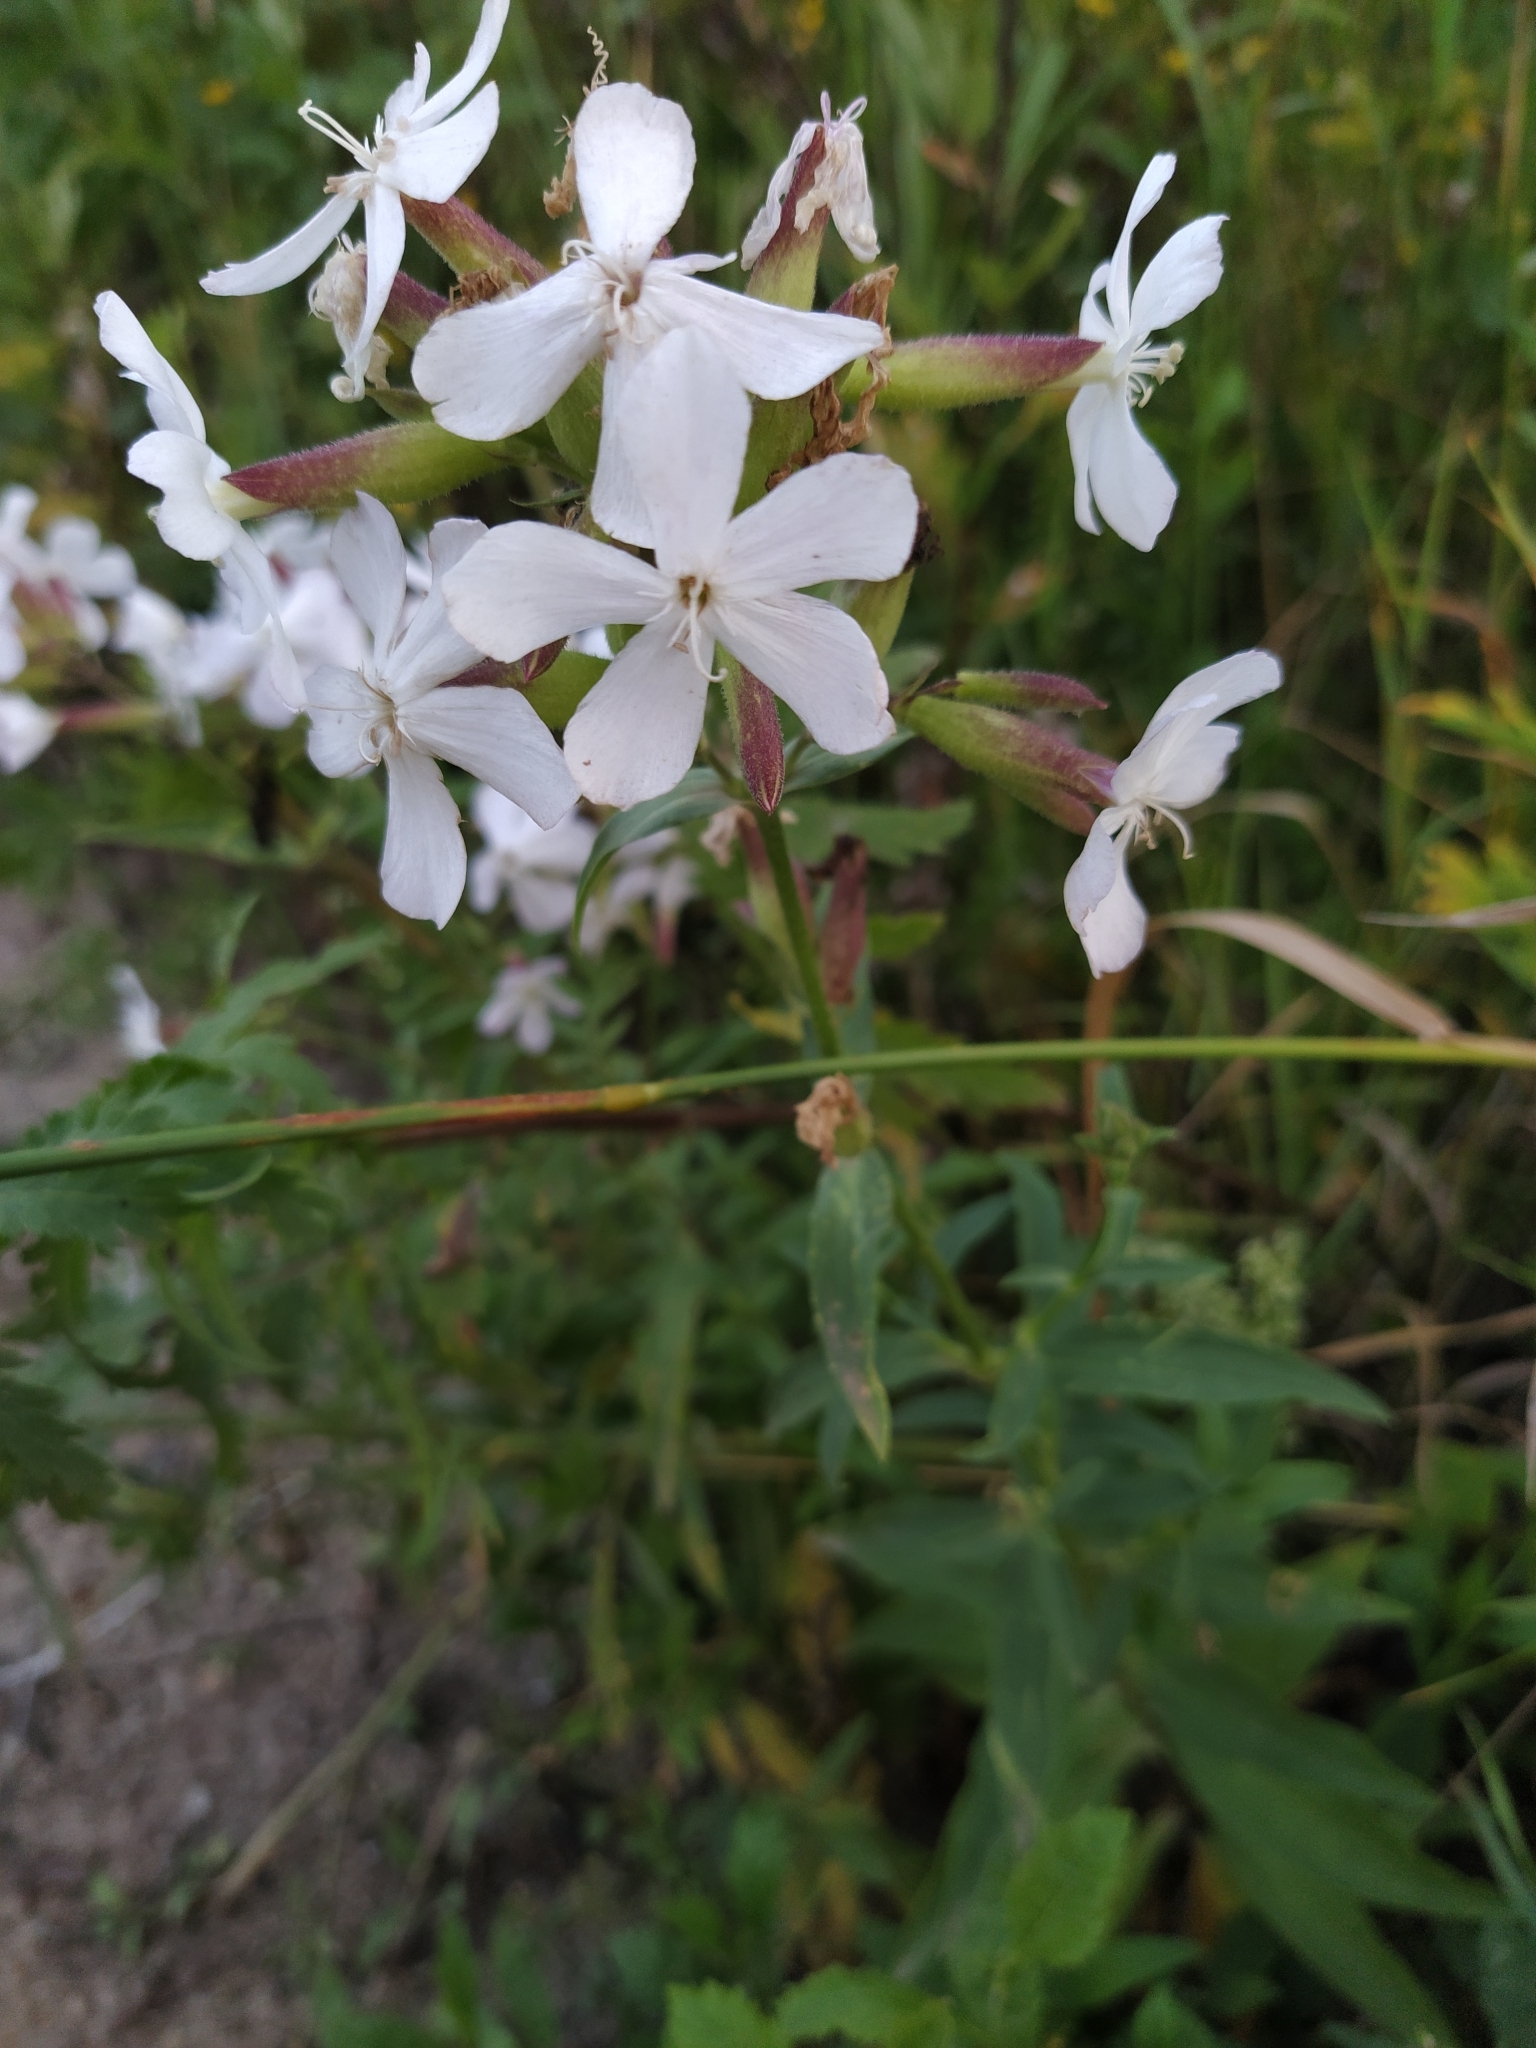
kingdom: Plantae
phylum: Tracheophyta
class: Magnoliopsida
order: Caryophyllales
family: Caryophyllaceae
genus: Saponaria
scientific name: Saponaria officinalis
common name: Soapwort
